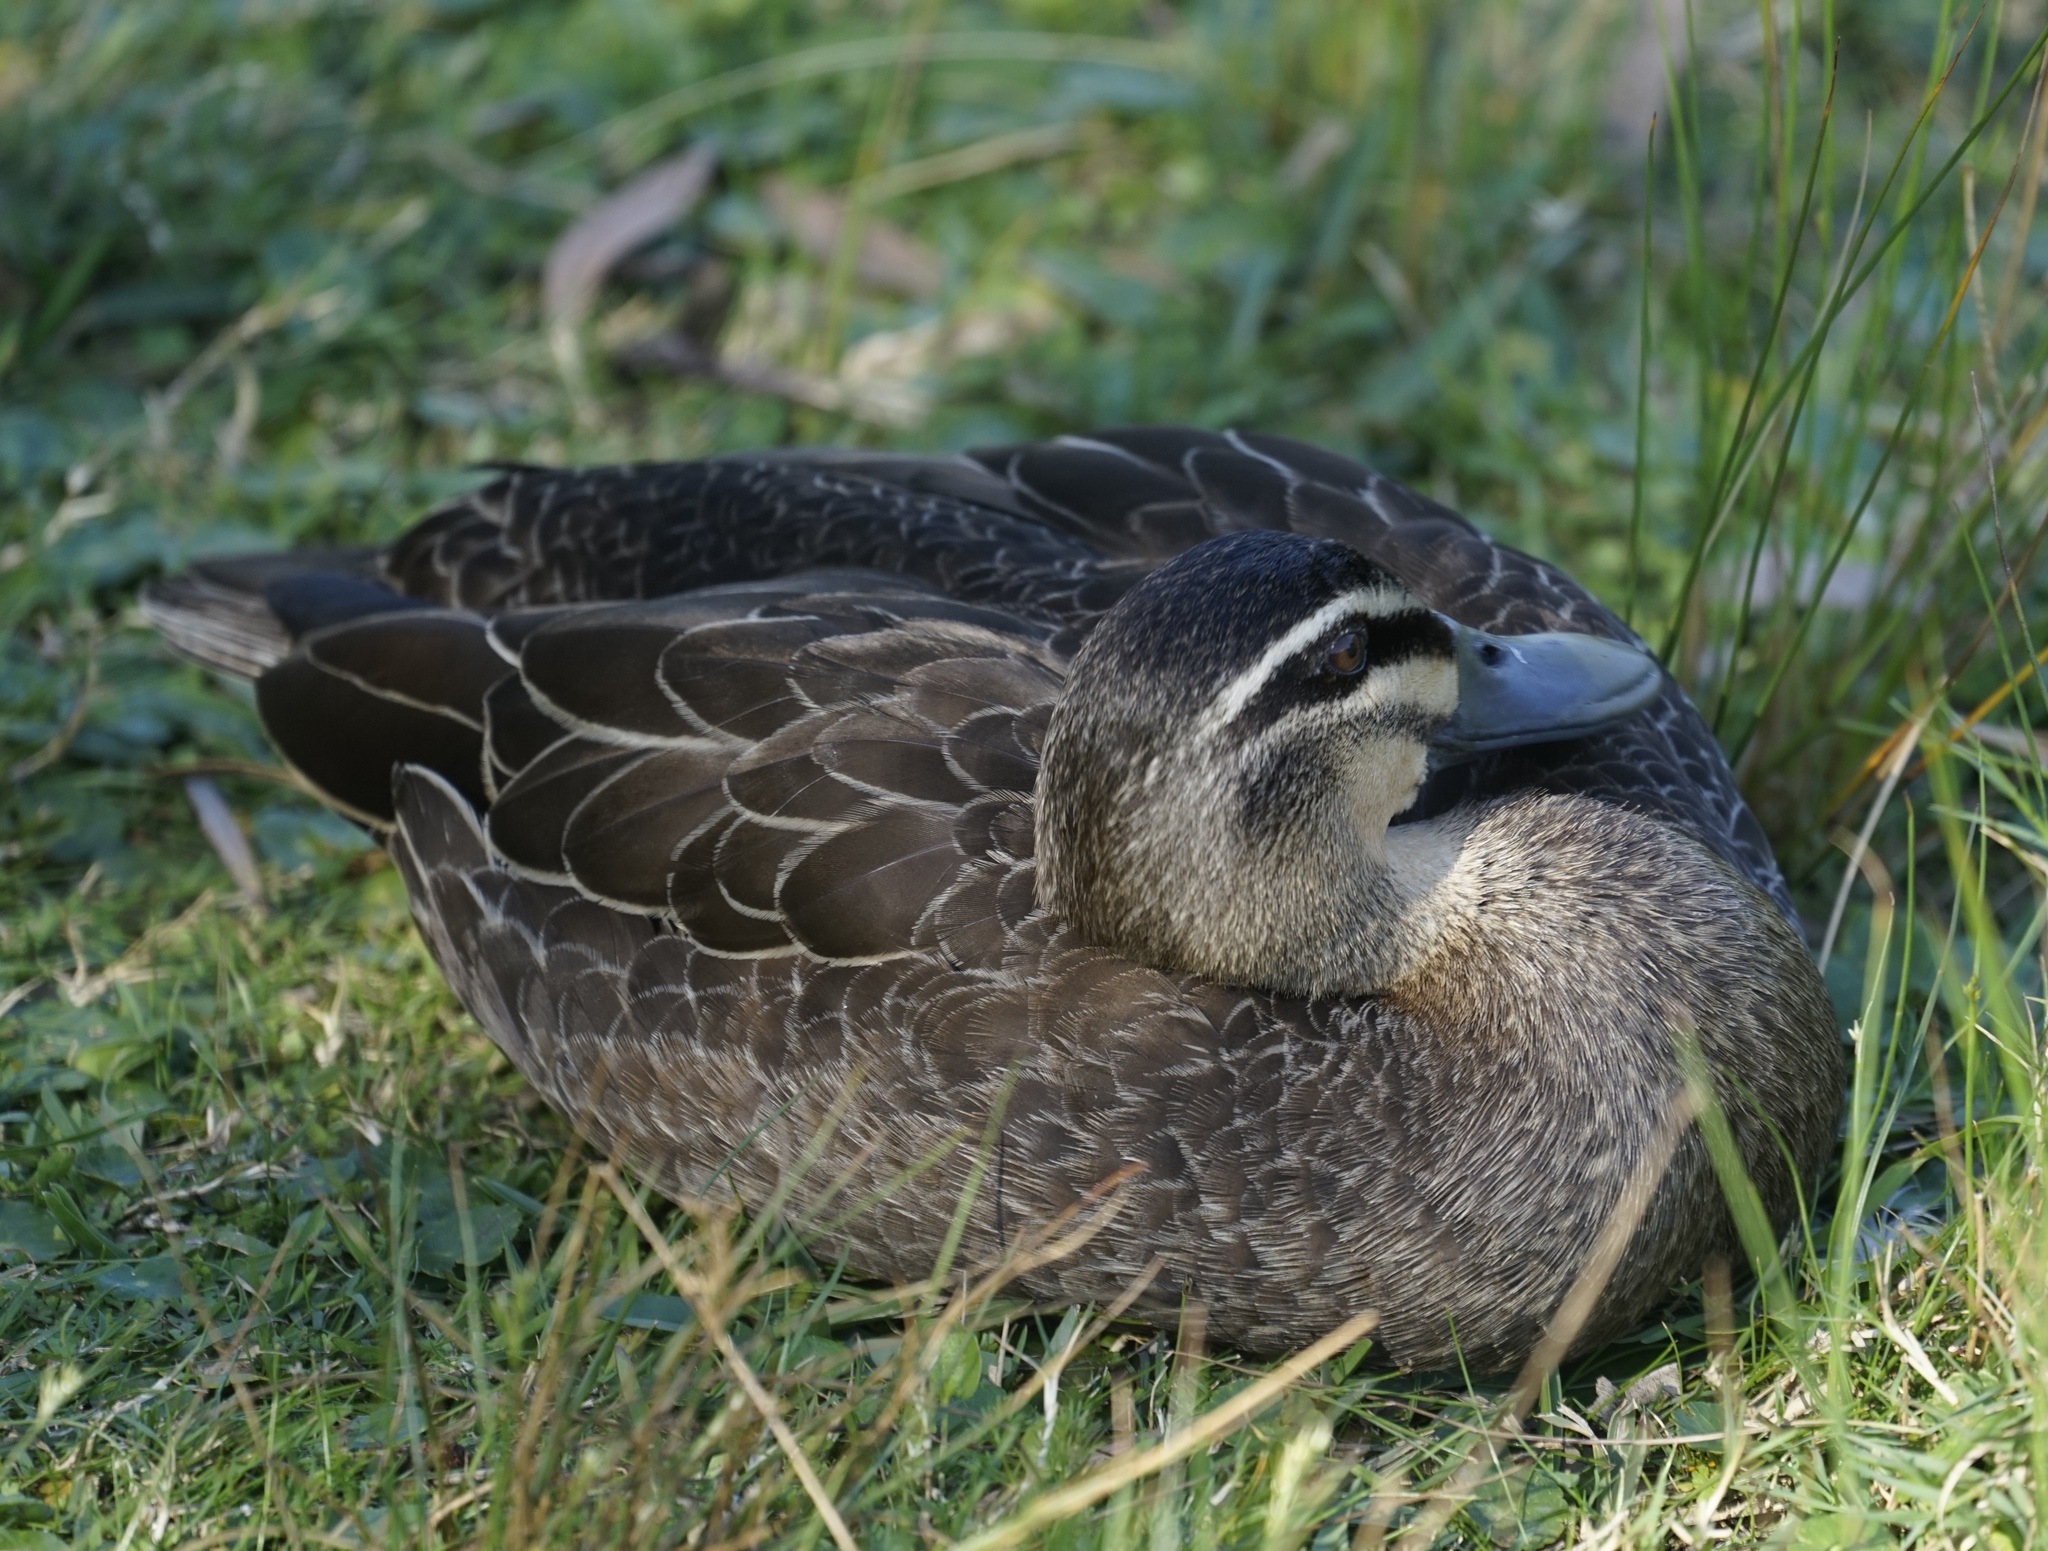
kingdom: Animalia
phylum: Chordata
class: Aves
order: Anseriformes
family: Anatidae
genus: Anas
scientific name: Anas superciliosa
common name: Pacific black duck
